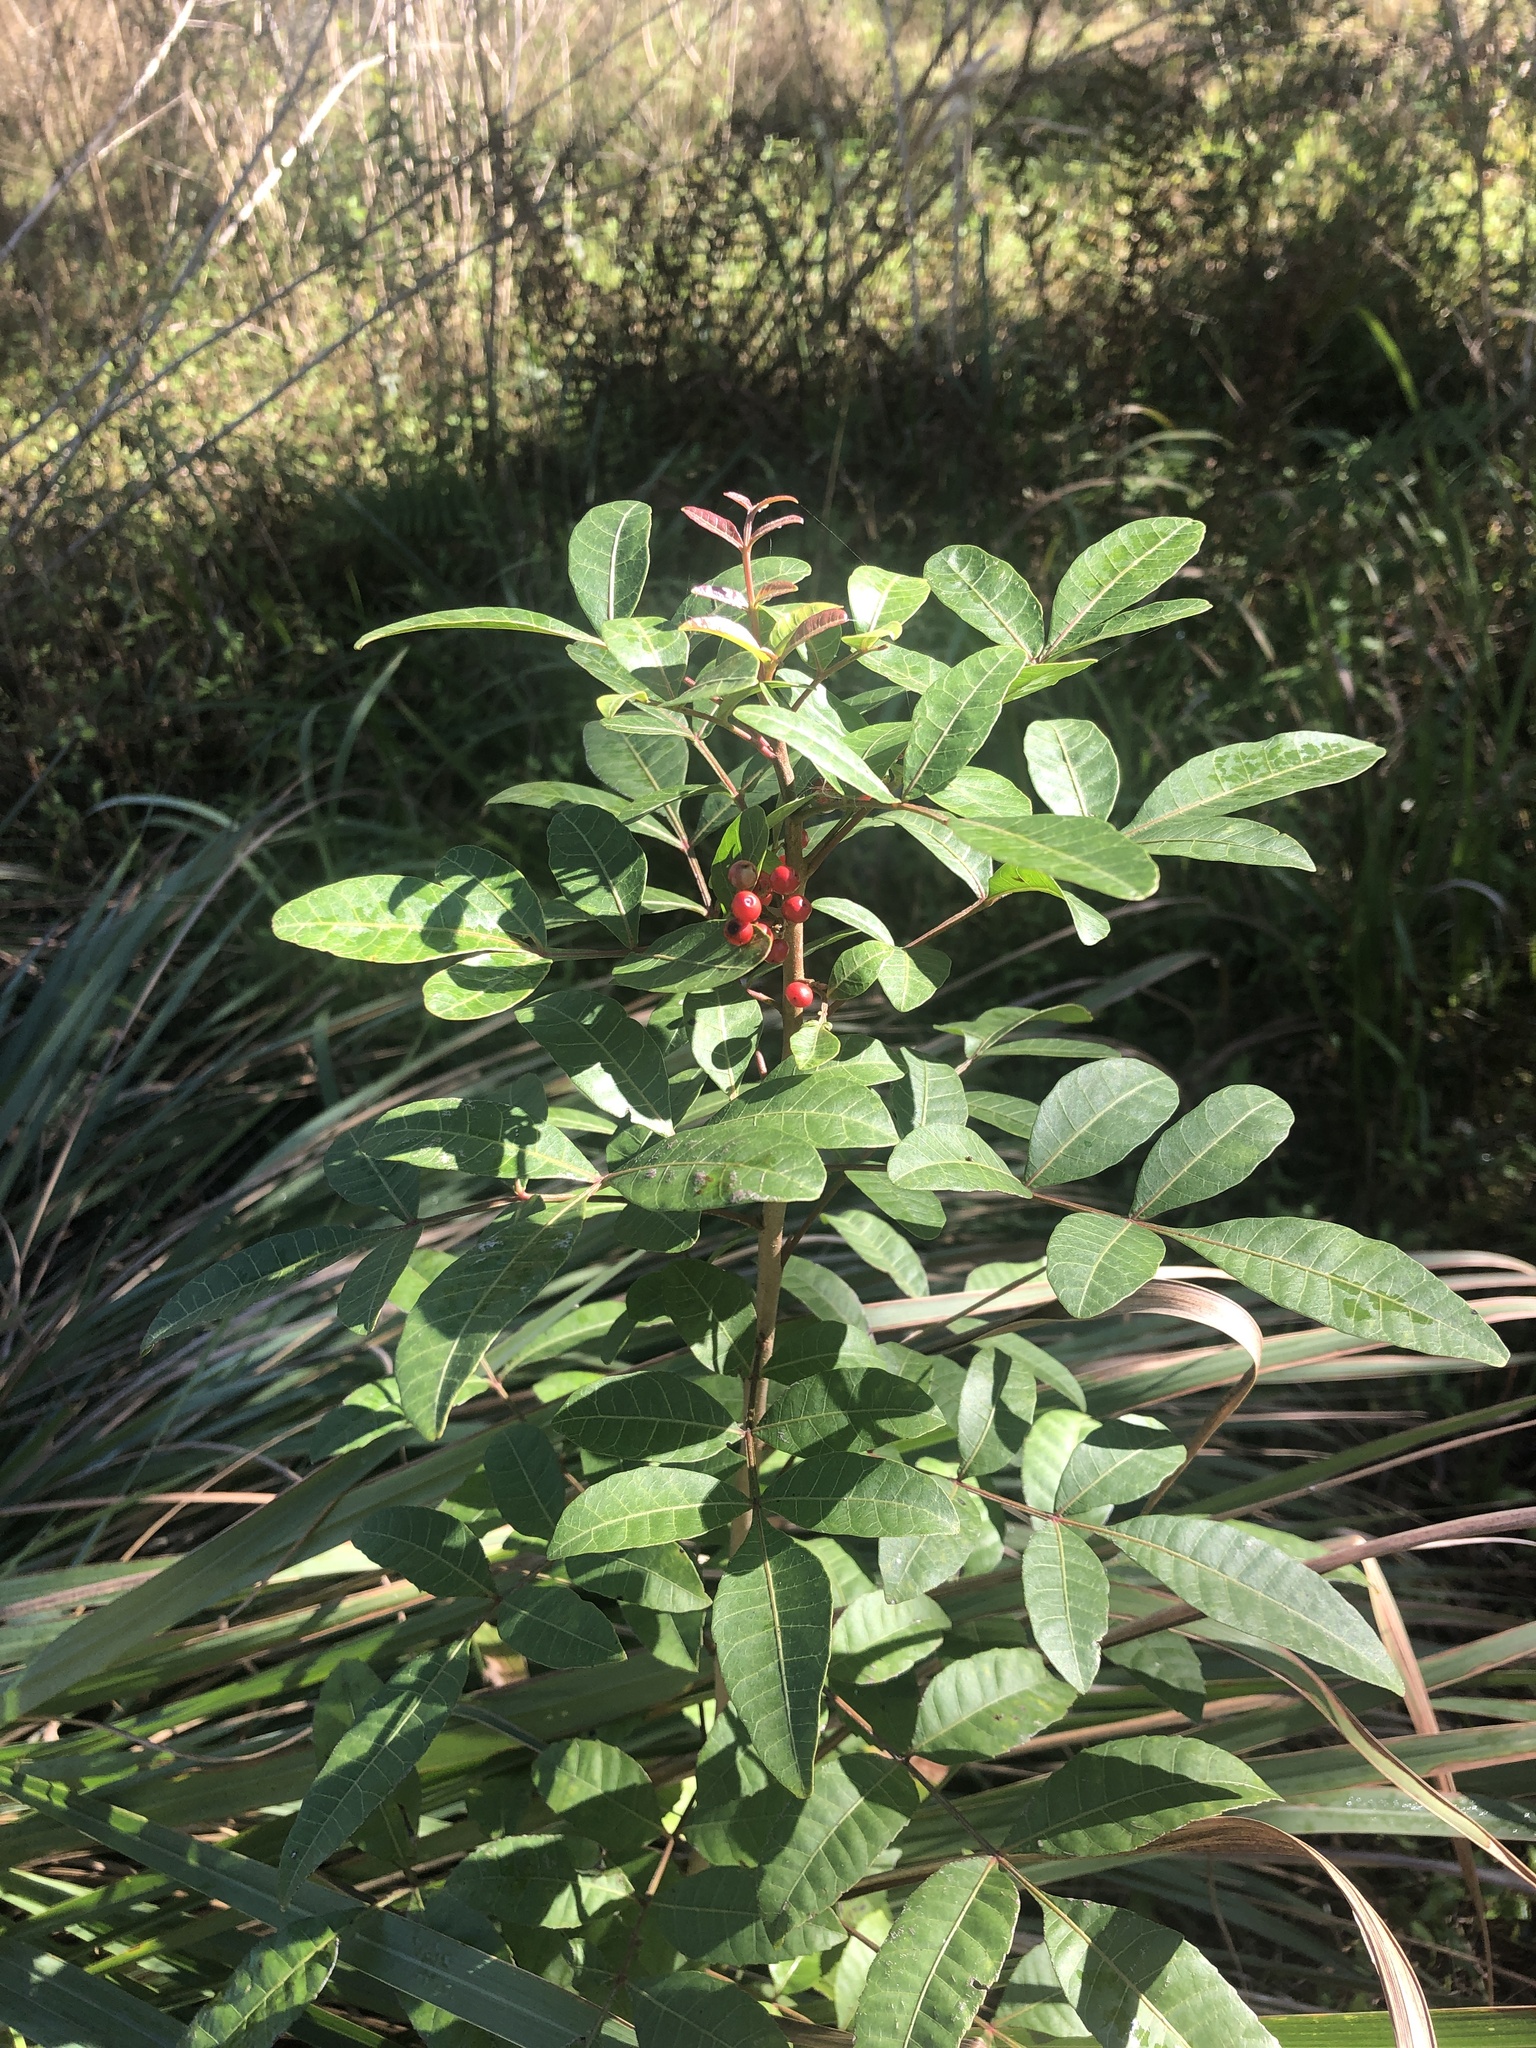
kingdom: Plantae
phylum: Tracheophyta
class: Magnoliopsida
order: Sapindales
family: Anacardiaceae
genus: Schinus
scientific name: Schinus terebinthifolia
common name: Brazilian peppertree
